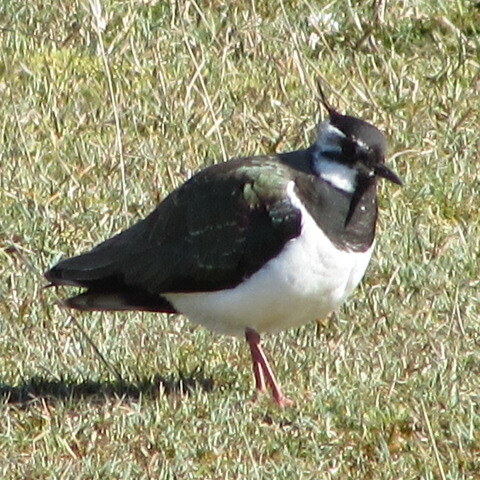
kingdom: Animalia
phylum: Chordata
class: Aves
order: Charadriiformes
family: Charadriidae
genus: Vanellus
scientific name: Vanellus vanellus
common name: Northern lapwing
